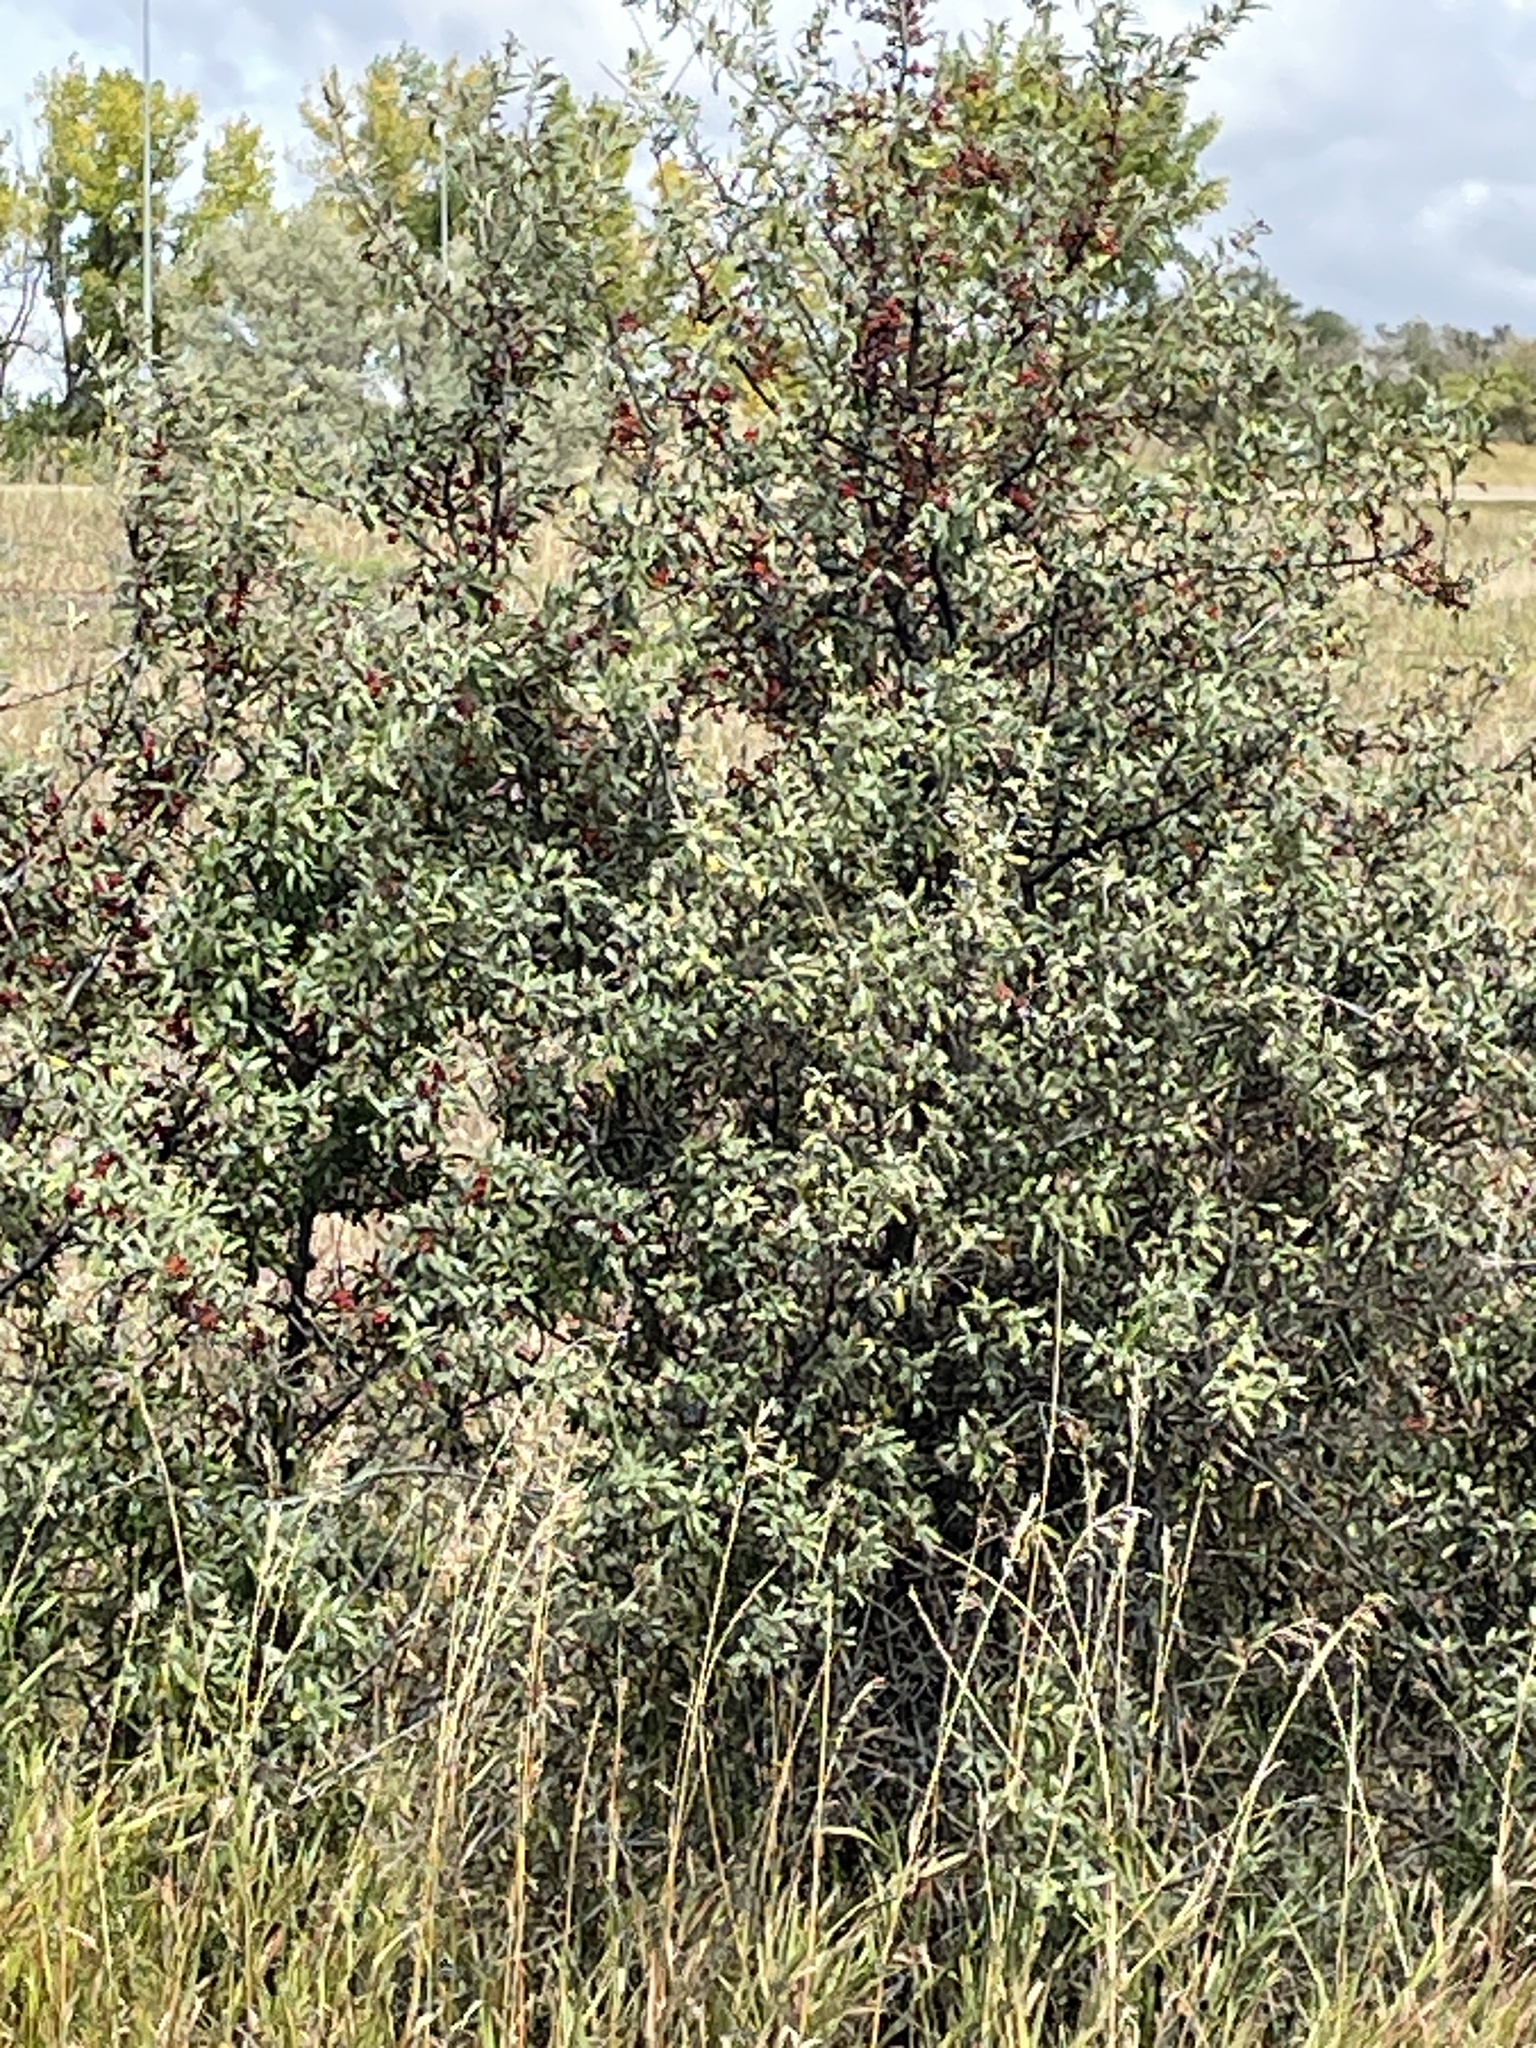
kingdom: Plantae
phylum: Tracheophyta
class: Magnoliopsida
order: Rosales
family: Elaeagnaceae
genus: Shepherdia
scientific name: Shepherdia argentea
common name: Silver buffaloberry
